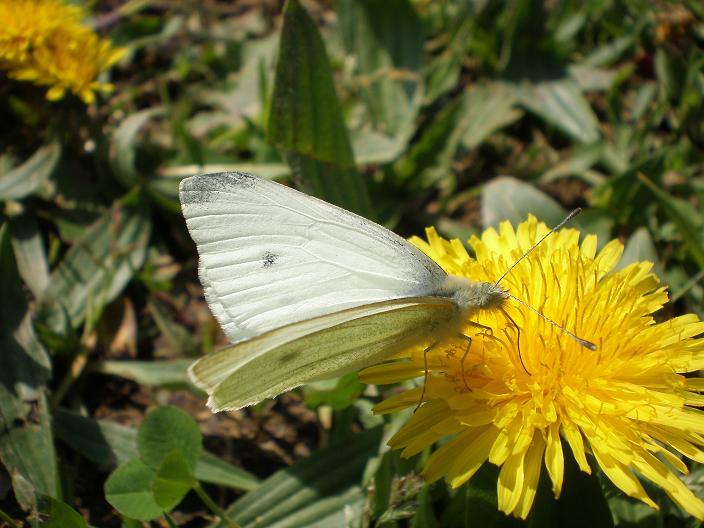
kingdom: Animalia
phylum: Arthropoda
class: Insecta
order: Lepidoptera
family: Pieridae
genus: Pieris
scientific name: Pieris rapae
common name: Small white
